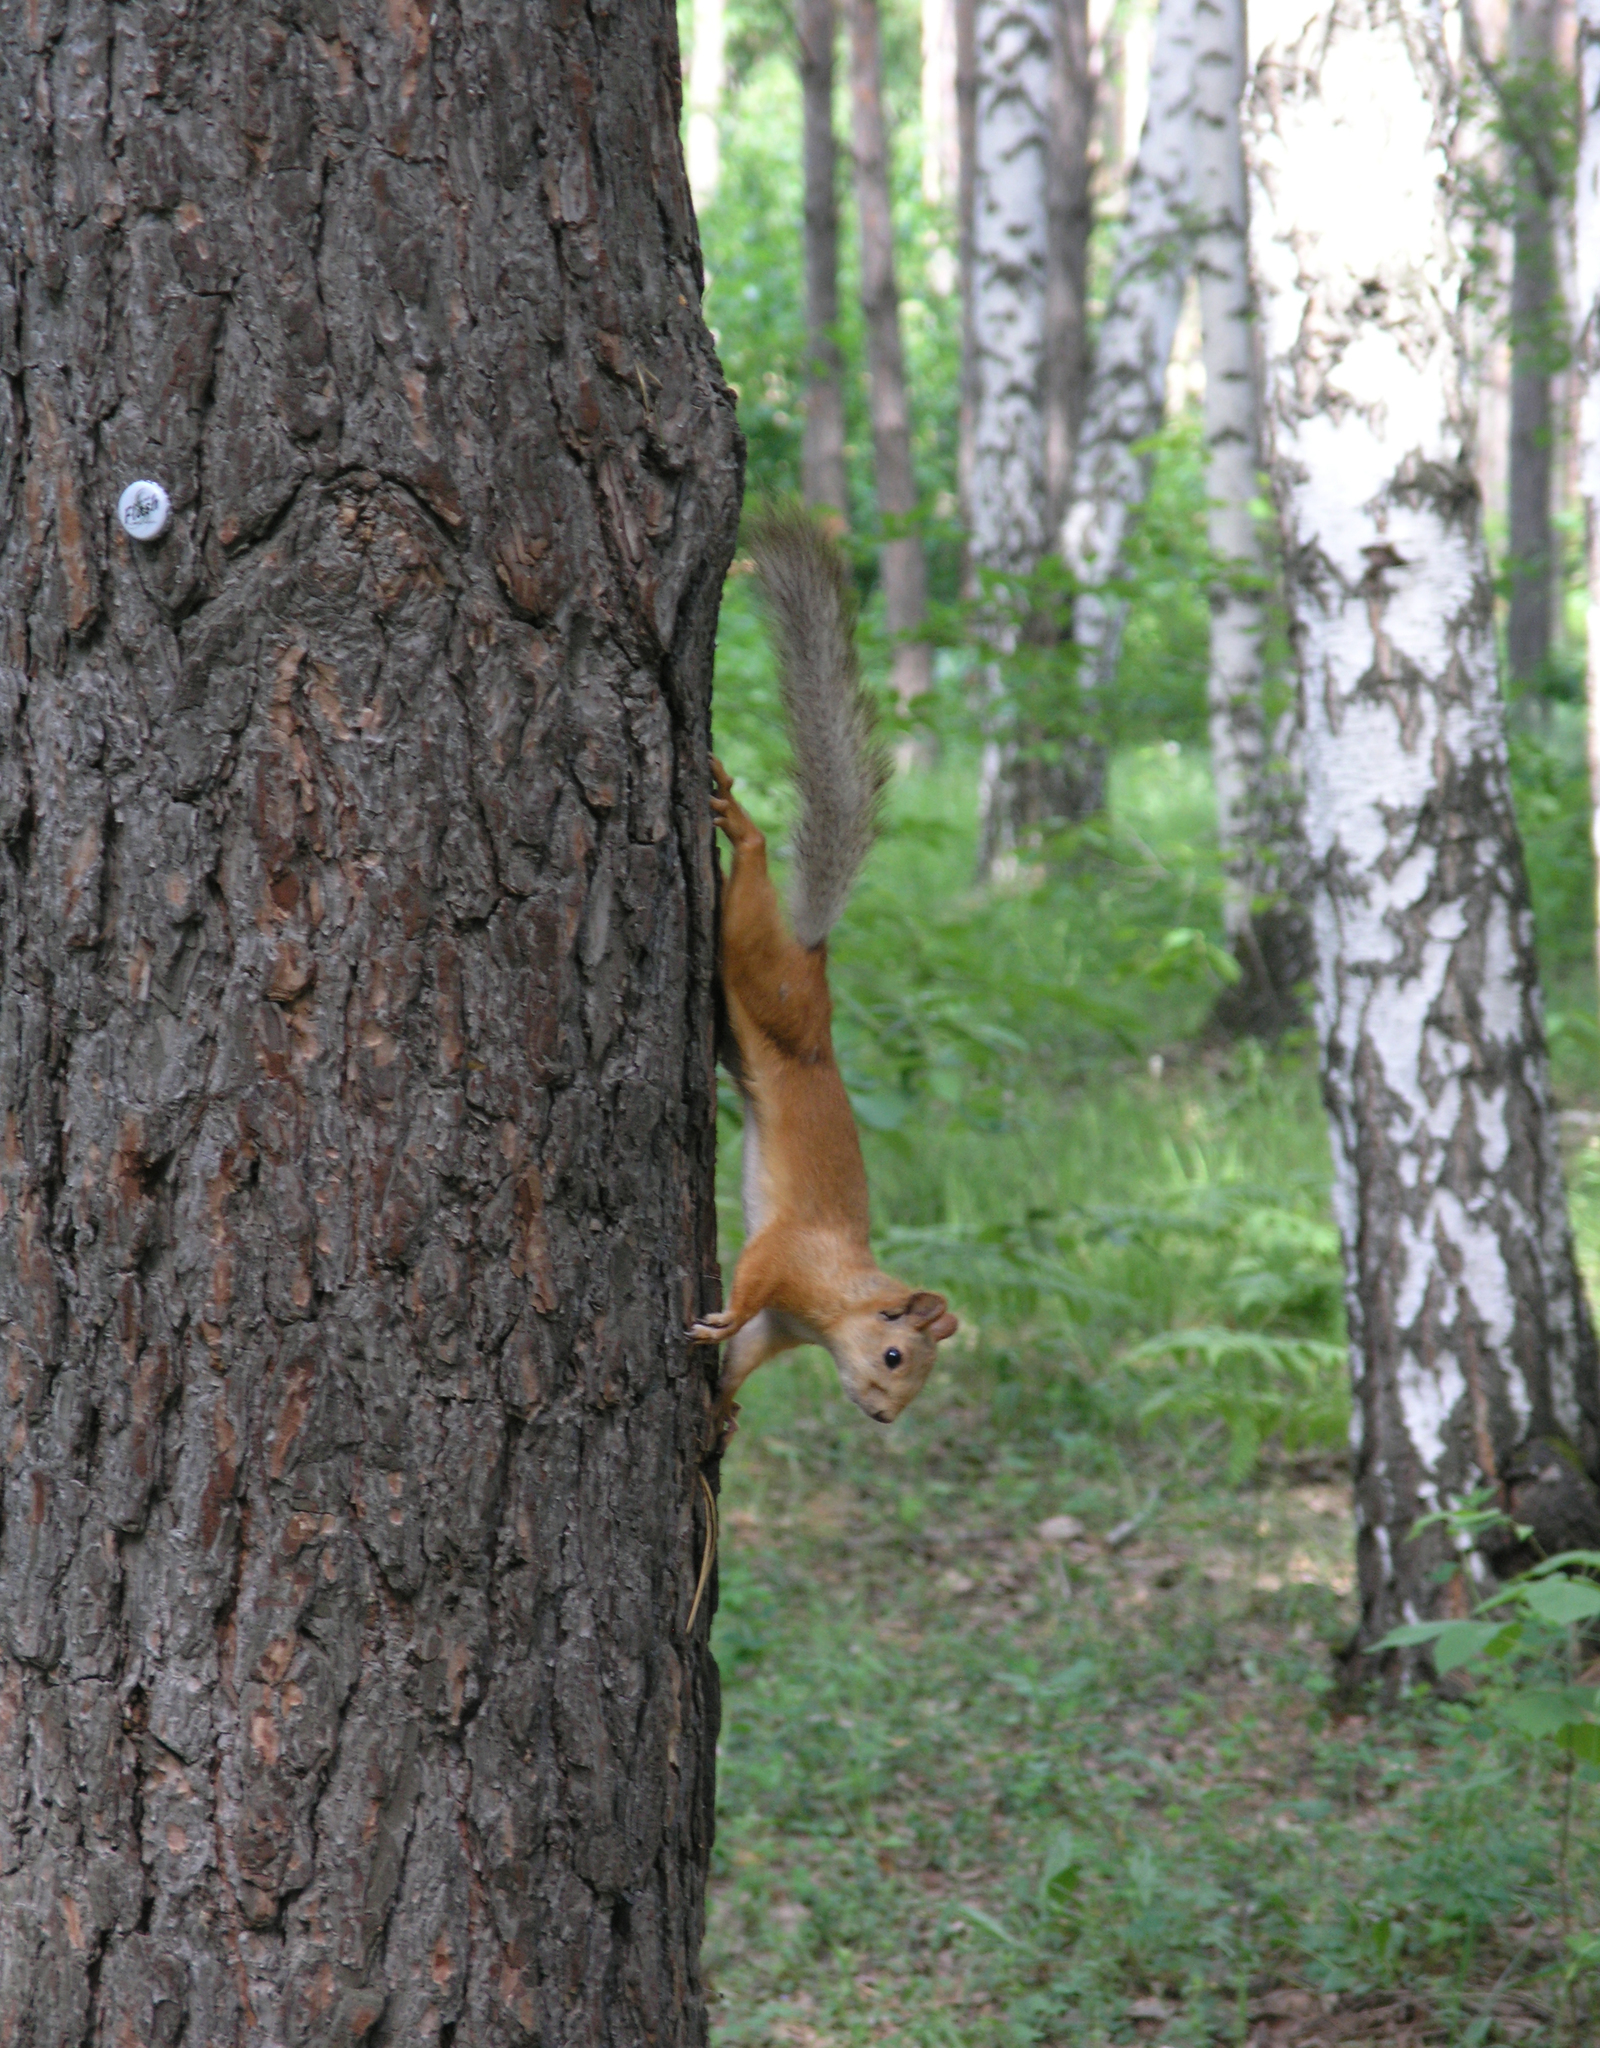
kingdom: Animalia
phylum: Chordata
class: Mammalia
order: Rodentia
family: Sciuridae
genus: Sciurus
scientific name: Sciurus vulgaris
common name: Eurasian red squirrel
